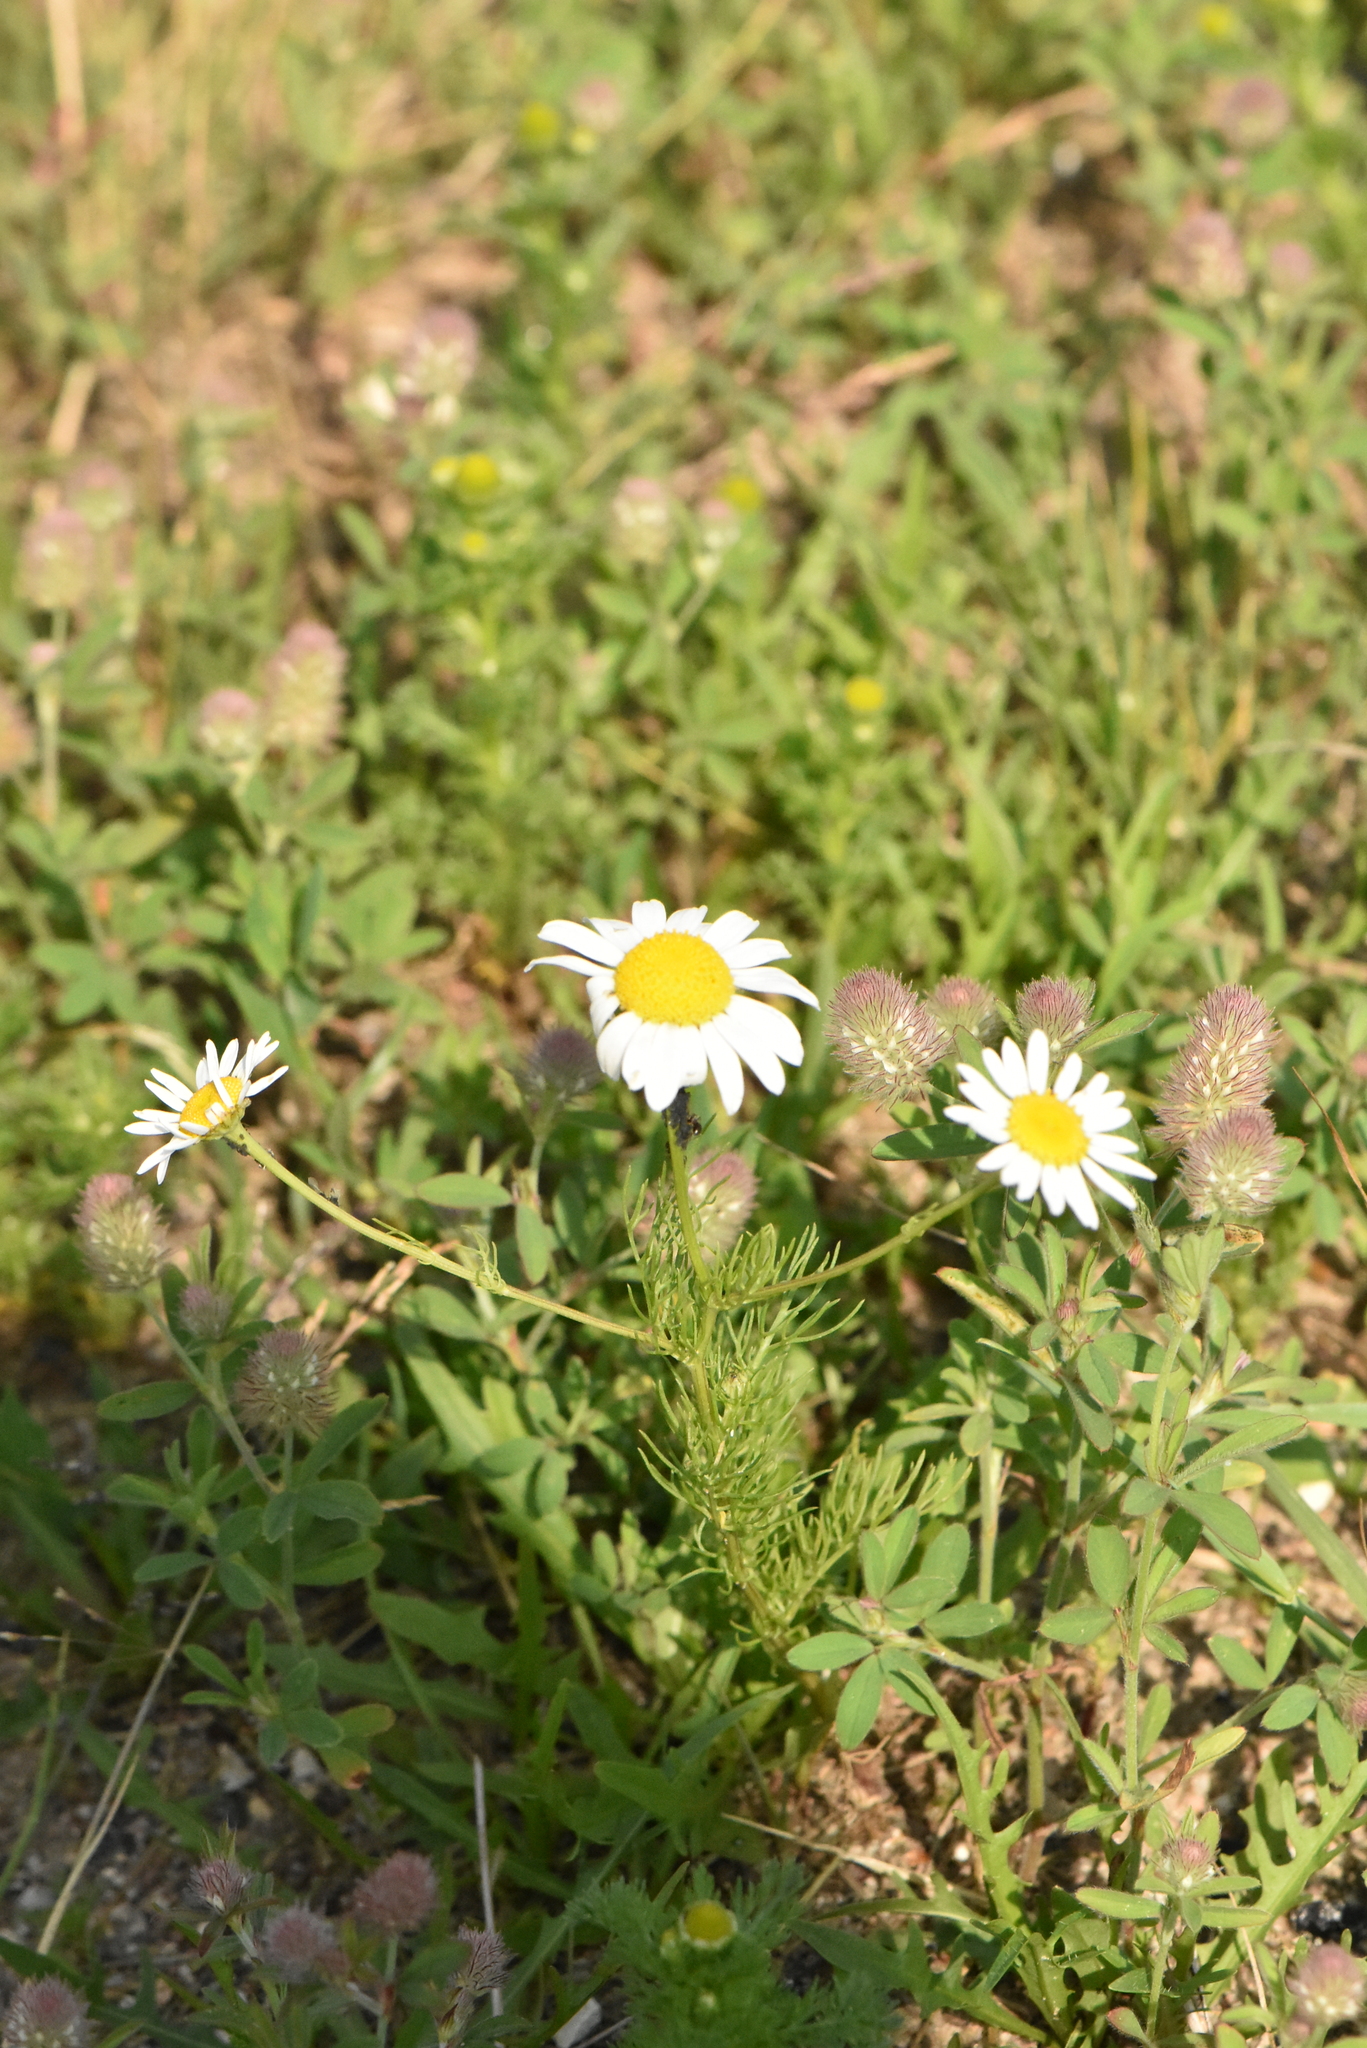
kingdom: Plantae
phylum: Tracheophyta
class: Magnoliopsida
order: Asterales
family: Asteraceae
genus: Tripleurospermum
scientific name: Tripleurospermum inodorum
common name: Scentless mayweed
